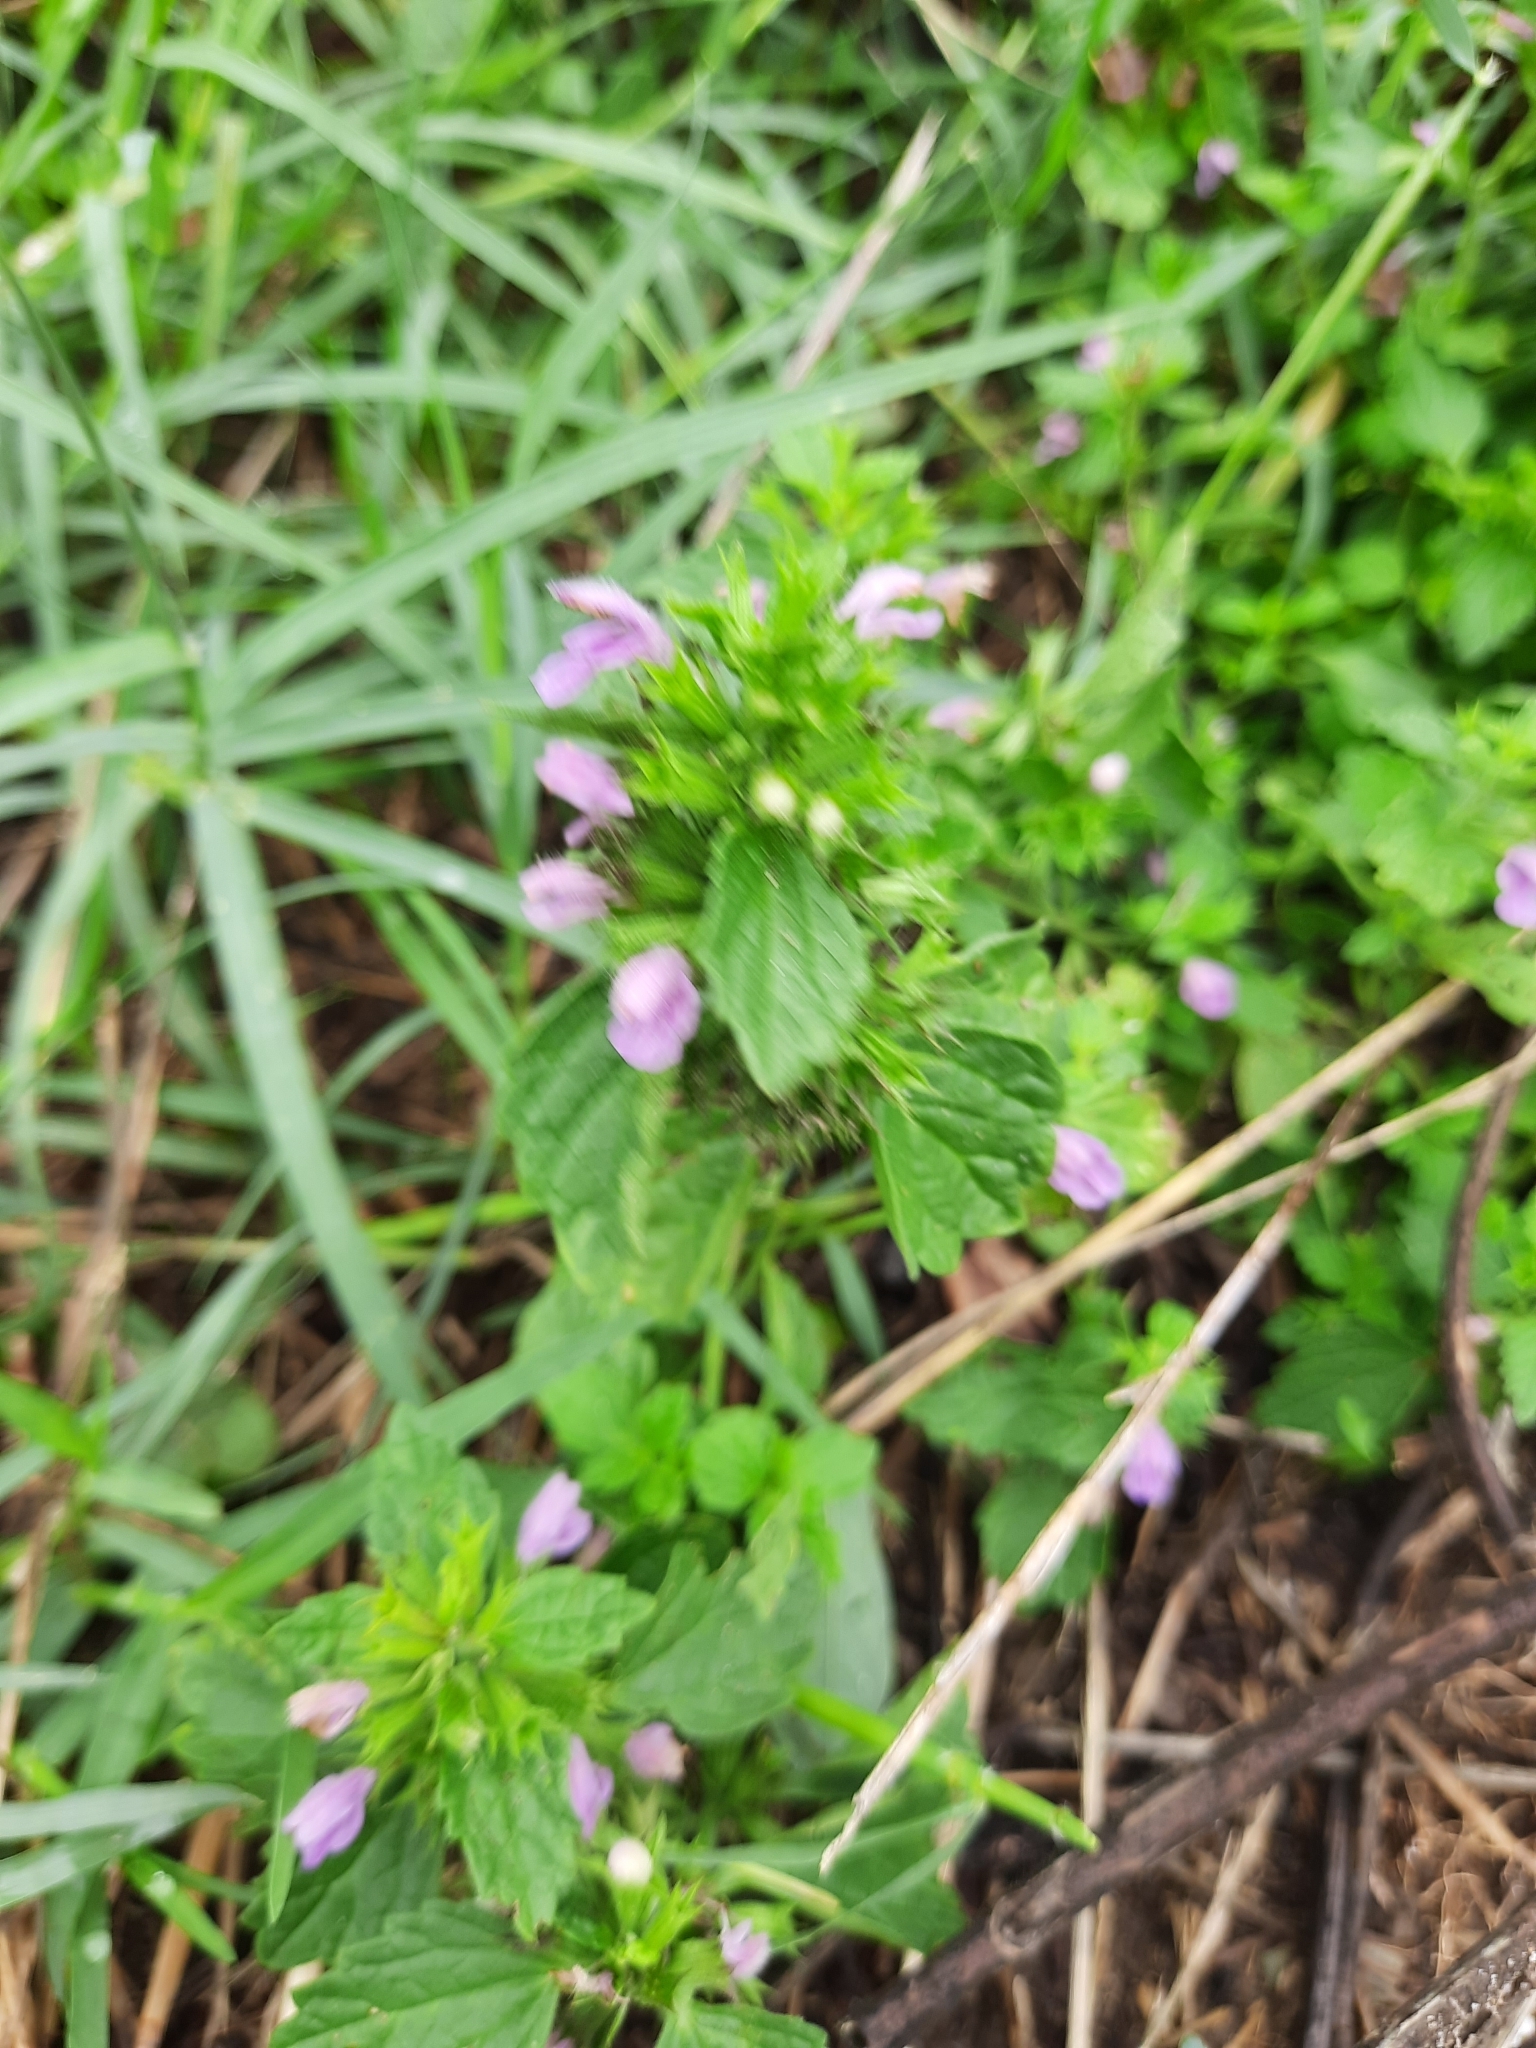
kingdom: Plantae
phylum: Tracheophyta
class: Magnoliopsida
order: Lamiales
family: Lamiaceae
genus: Ballota
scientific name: Ballota nigra
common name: Black horehound
